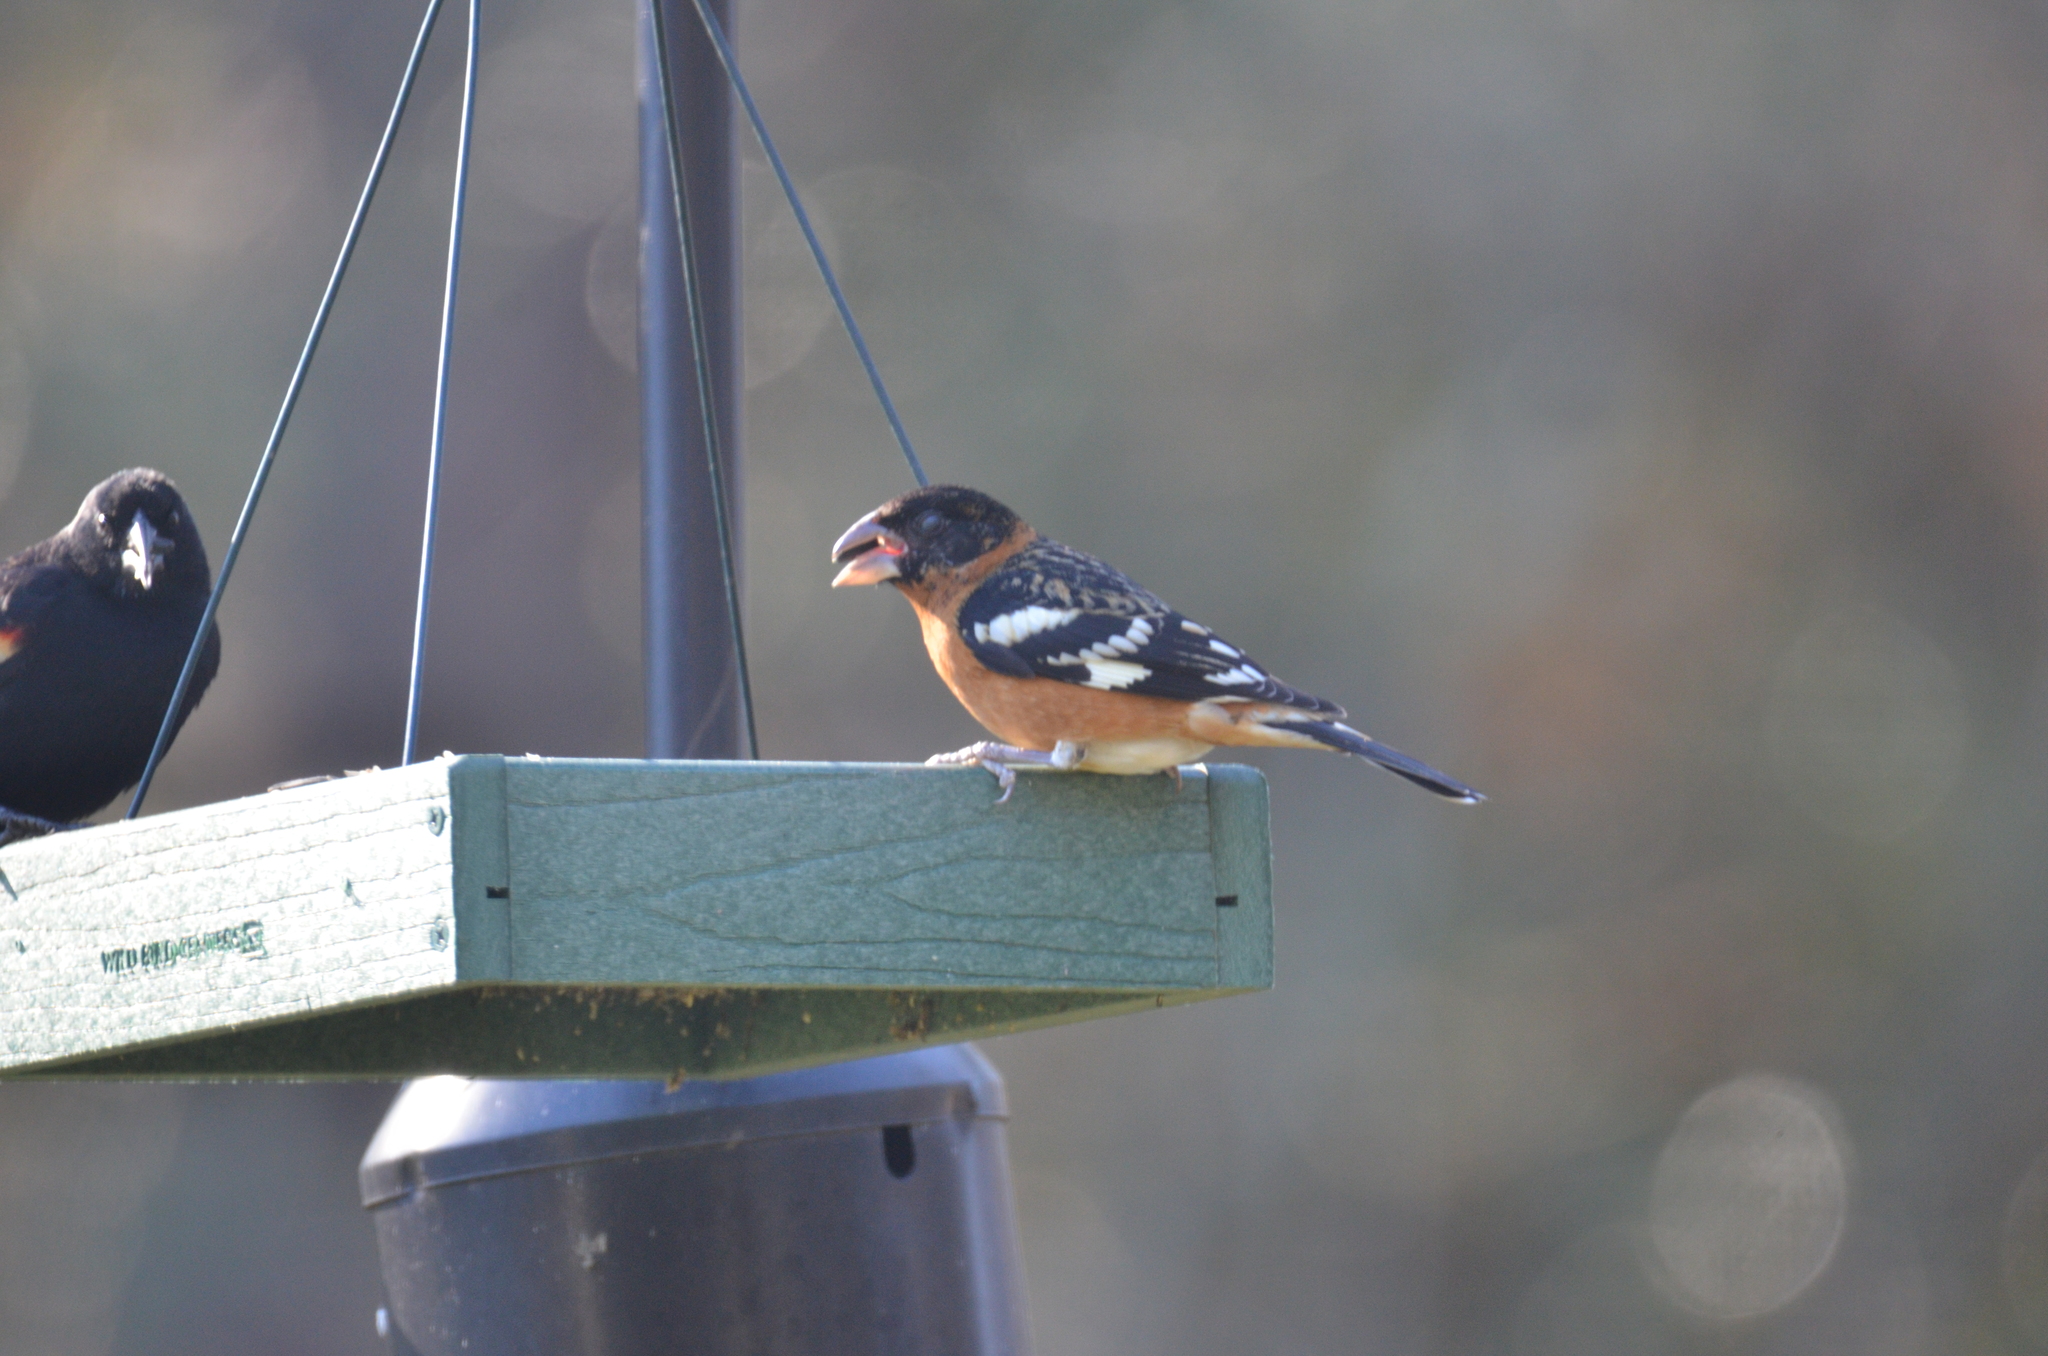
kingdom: Animalia
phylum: Chordata
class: Aves
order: Passeriformes
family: Cardinalidae
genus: Pheucticus
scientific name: Pheucticus melanocephalus
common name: Black-headed grosbeak
